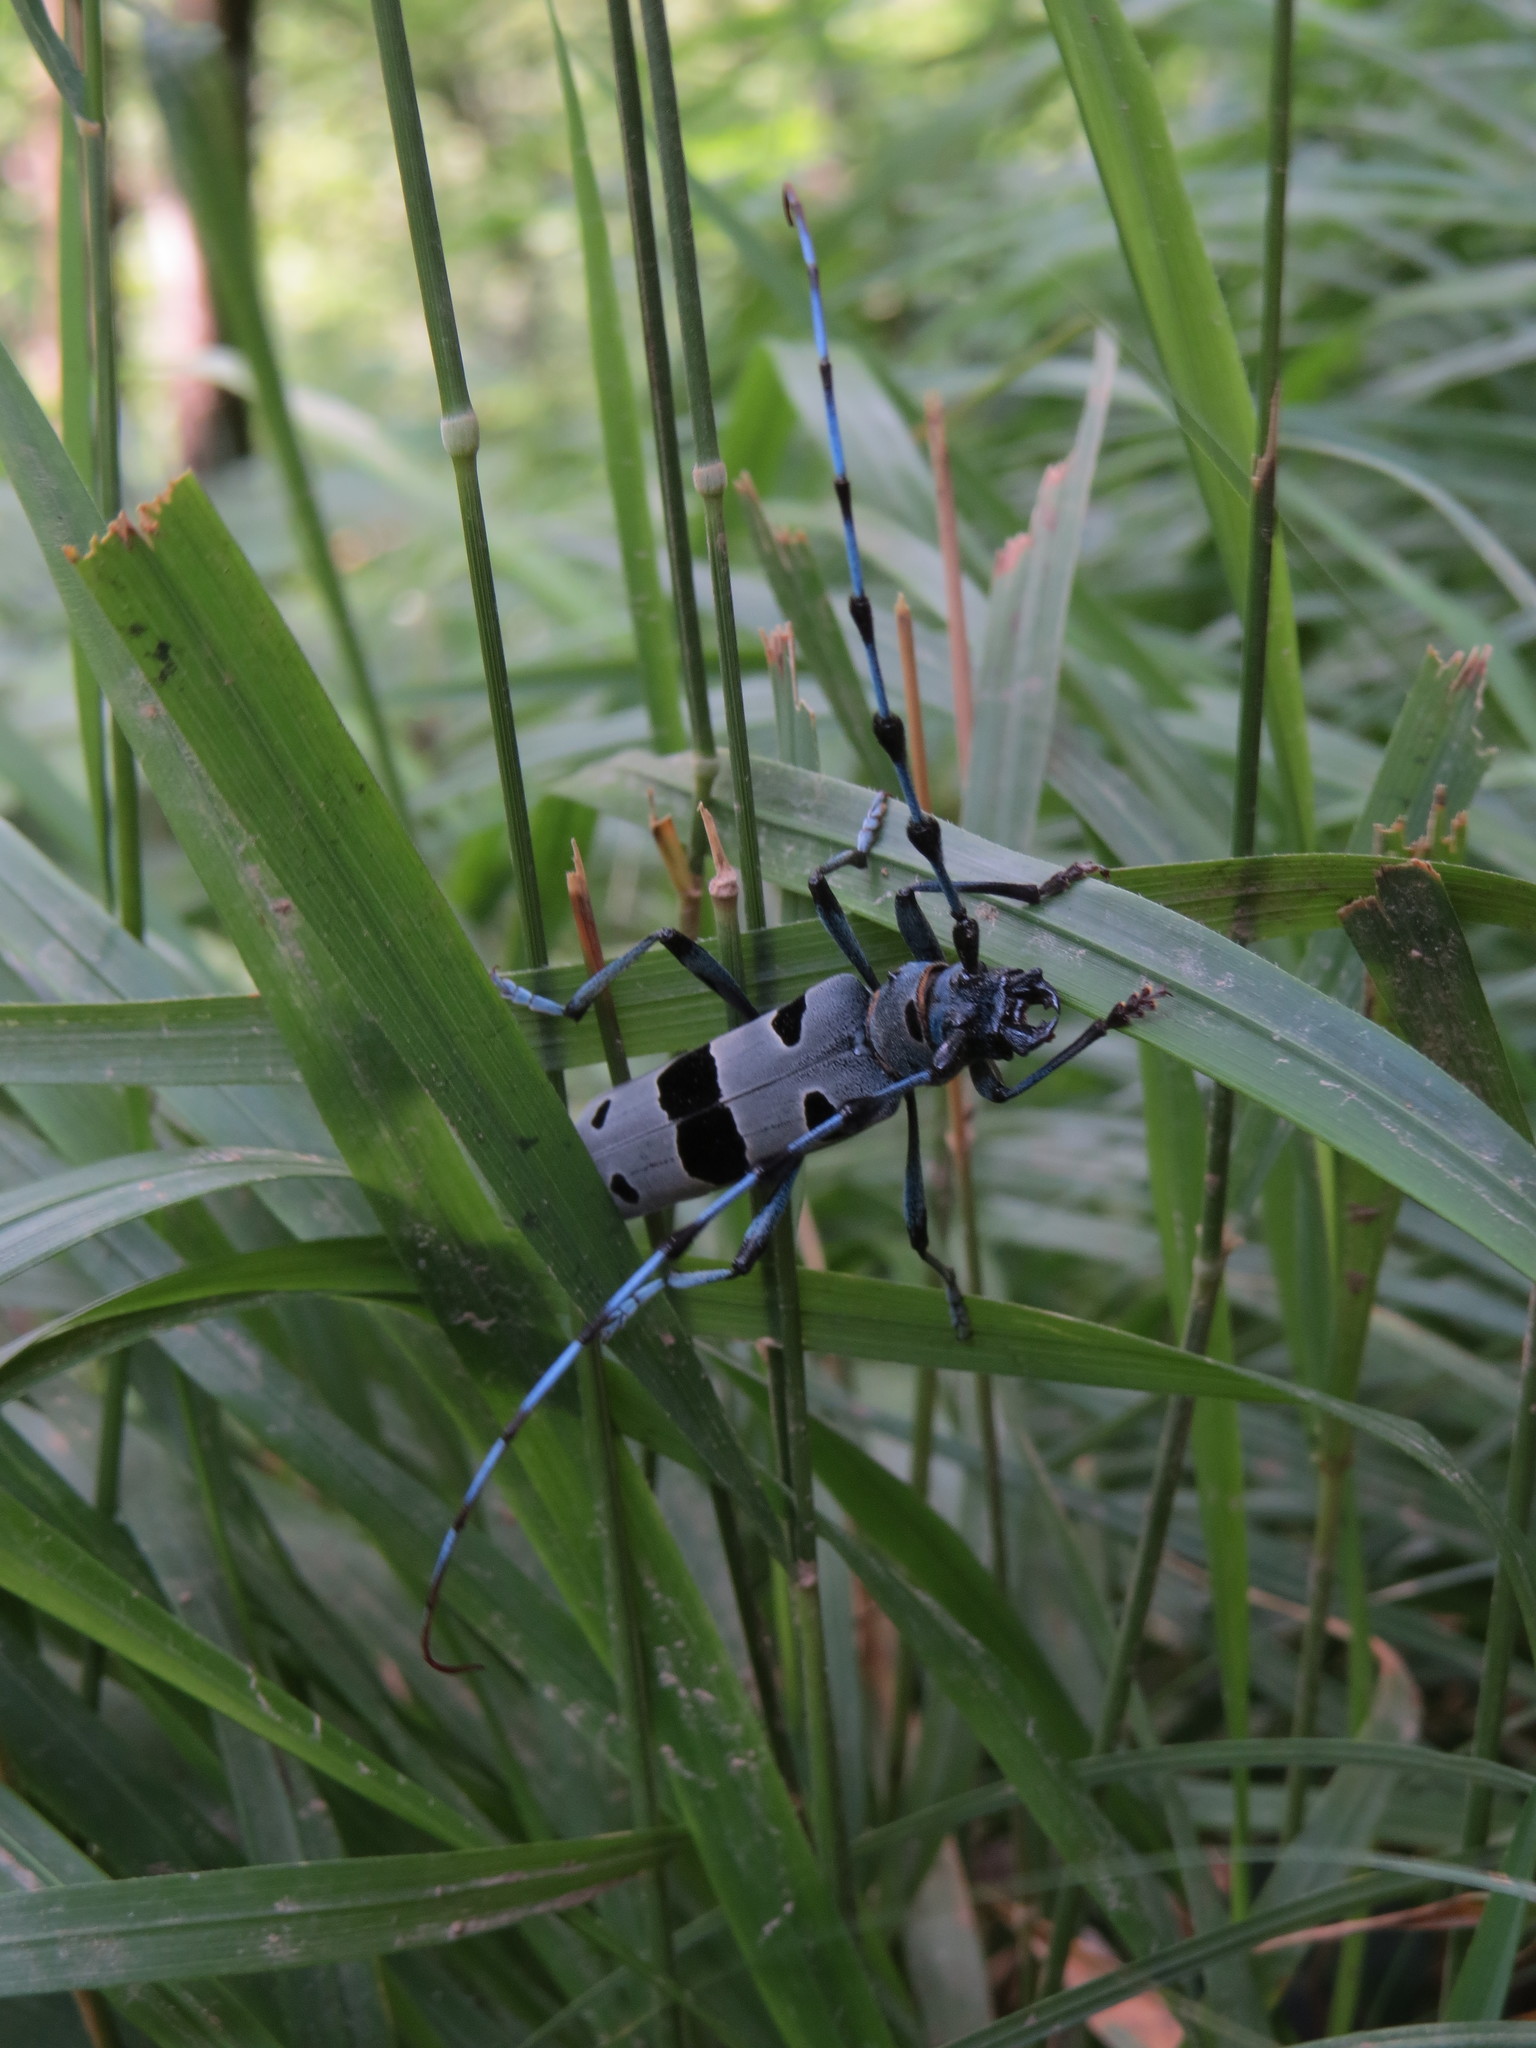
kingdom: Animalia
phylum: Arthropoda
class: Insecta
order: Coleoptera
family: Cerambycidae
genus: Rosalia
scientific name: Rosalia alpina
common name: Rosalia longicorn
